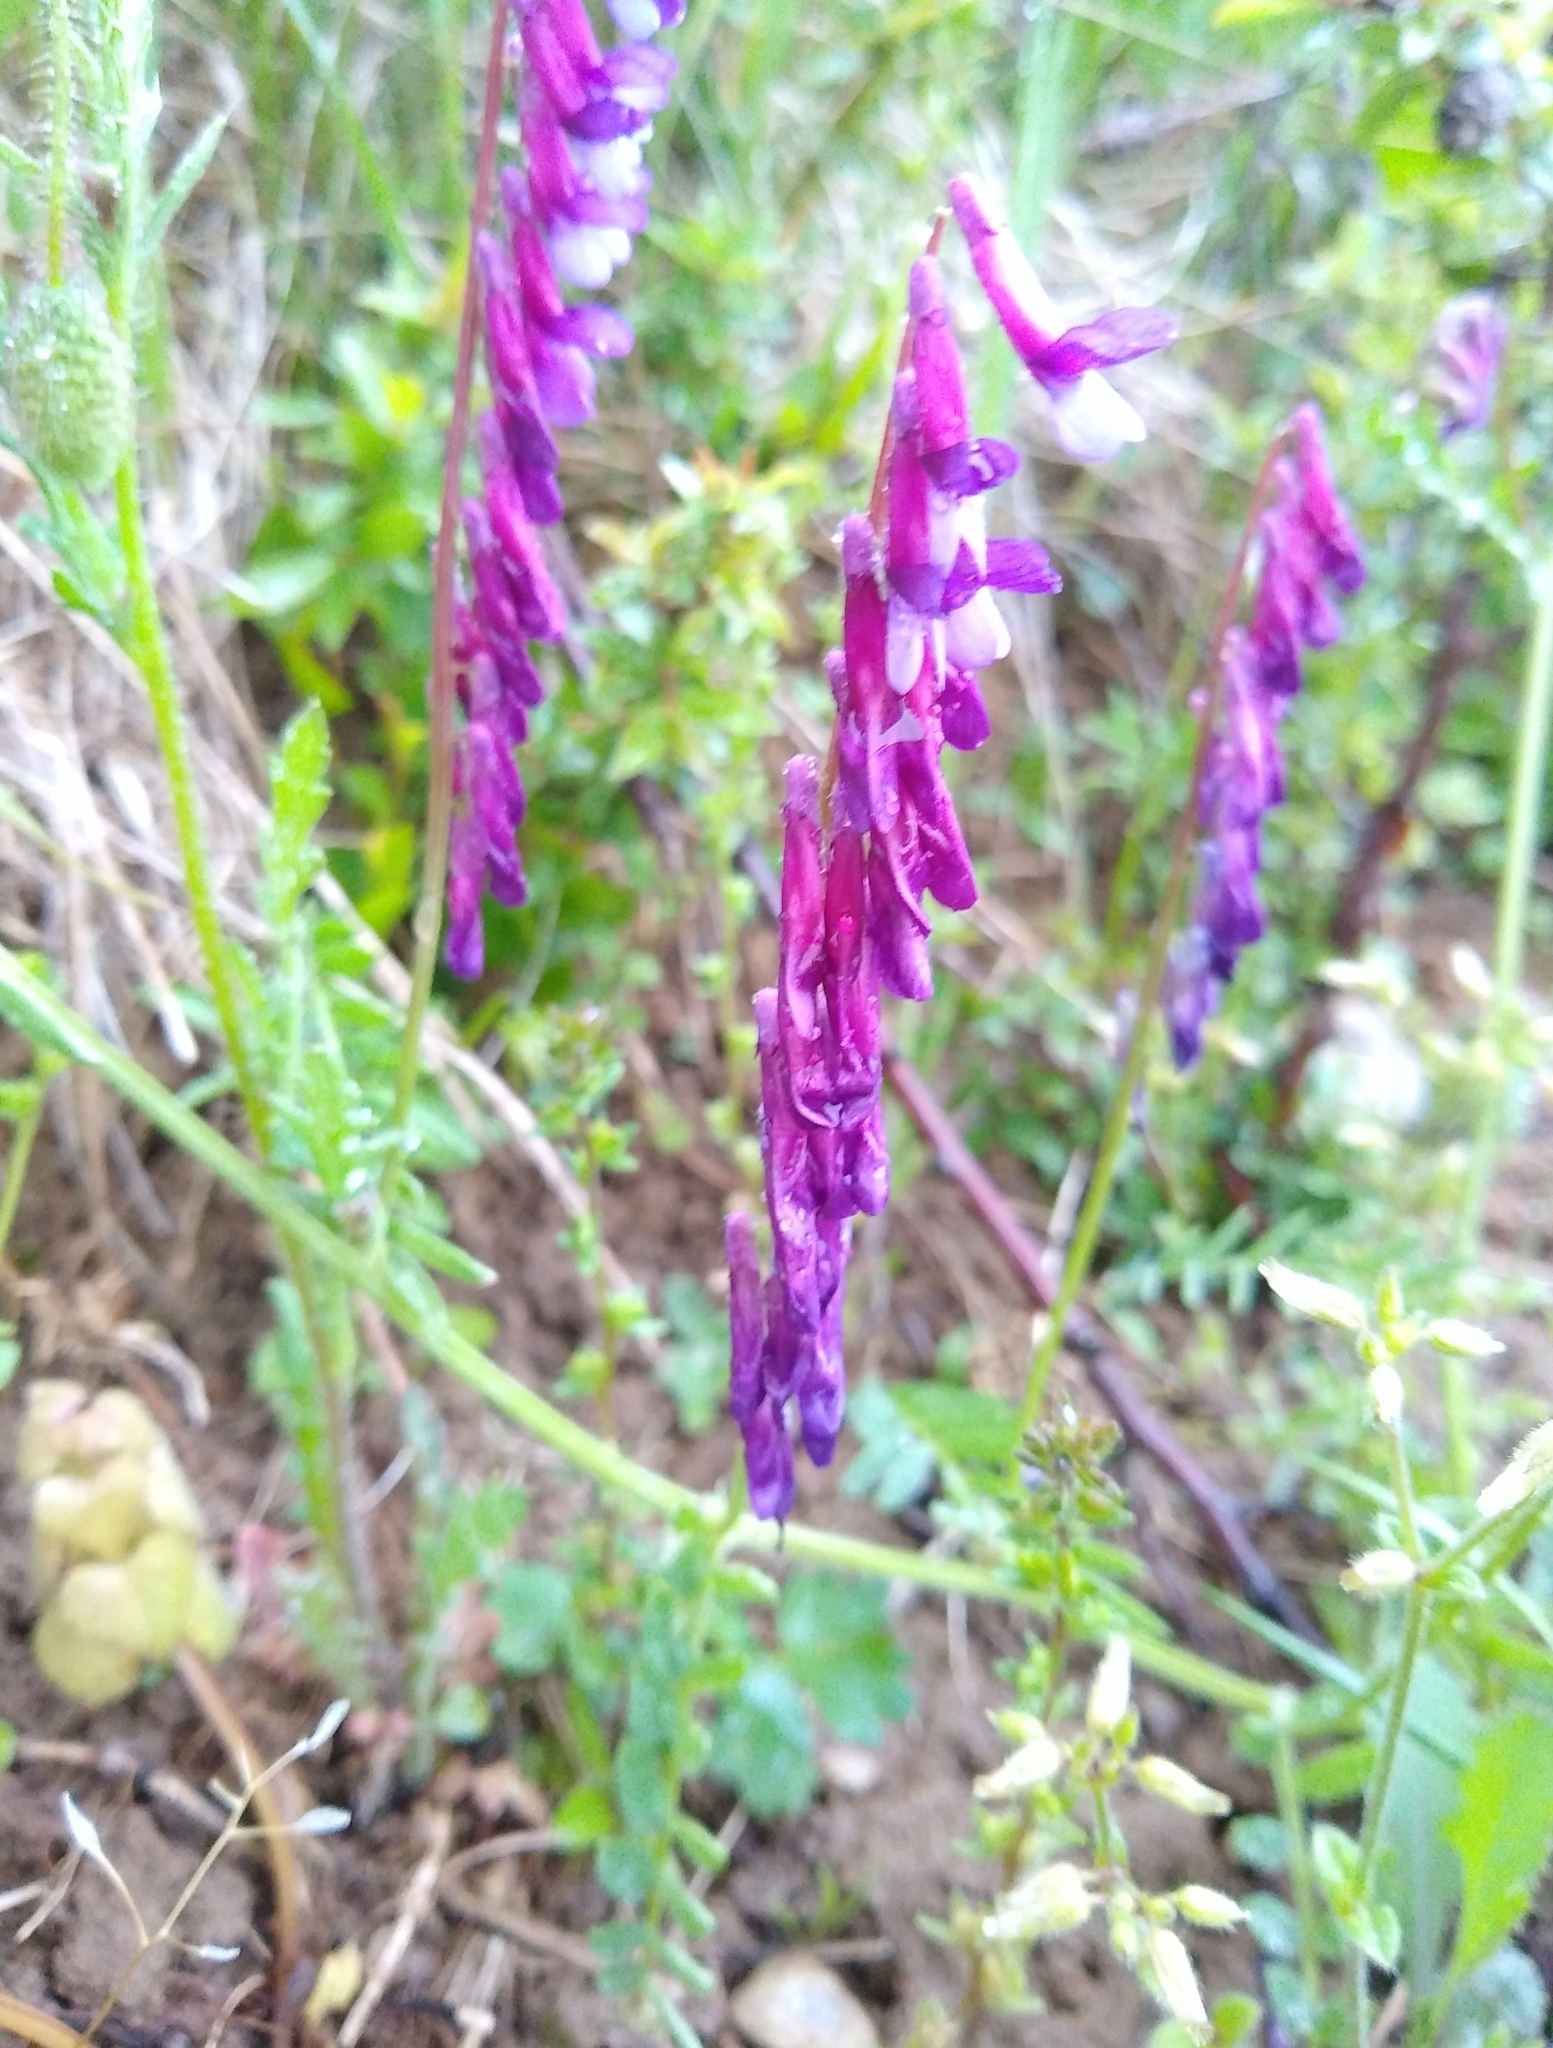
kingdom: Plantae
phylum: Tracheophyta
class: Magnoliopsida
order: Fabales
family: Fabaceae
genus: Vicia
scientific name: Vicia villosa
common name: Fodder vetch
